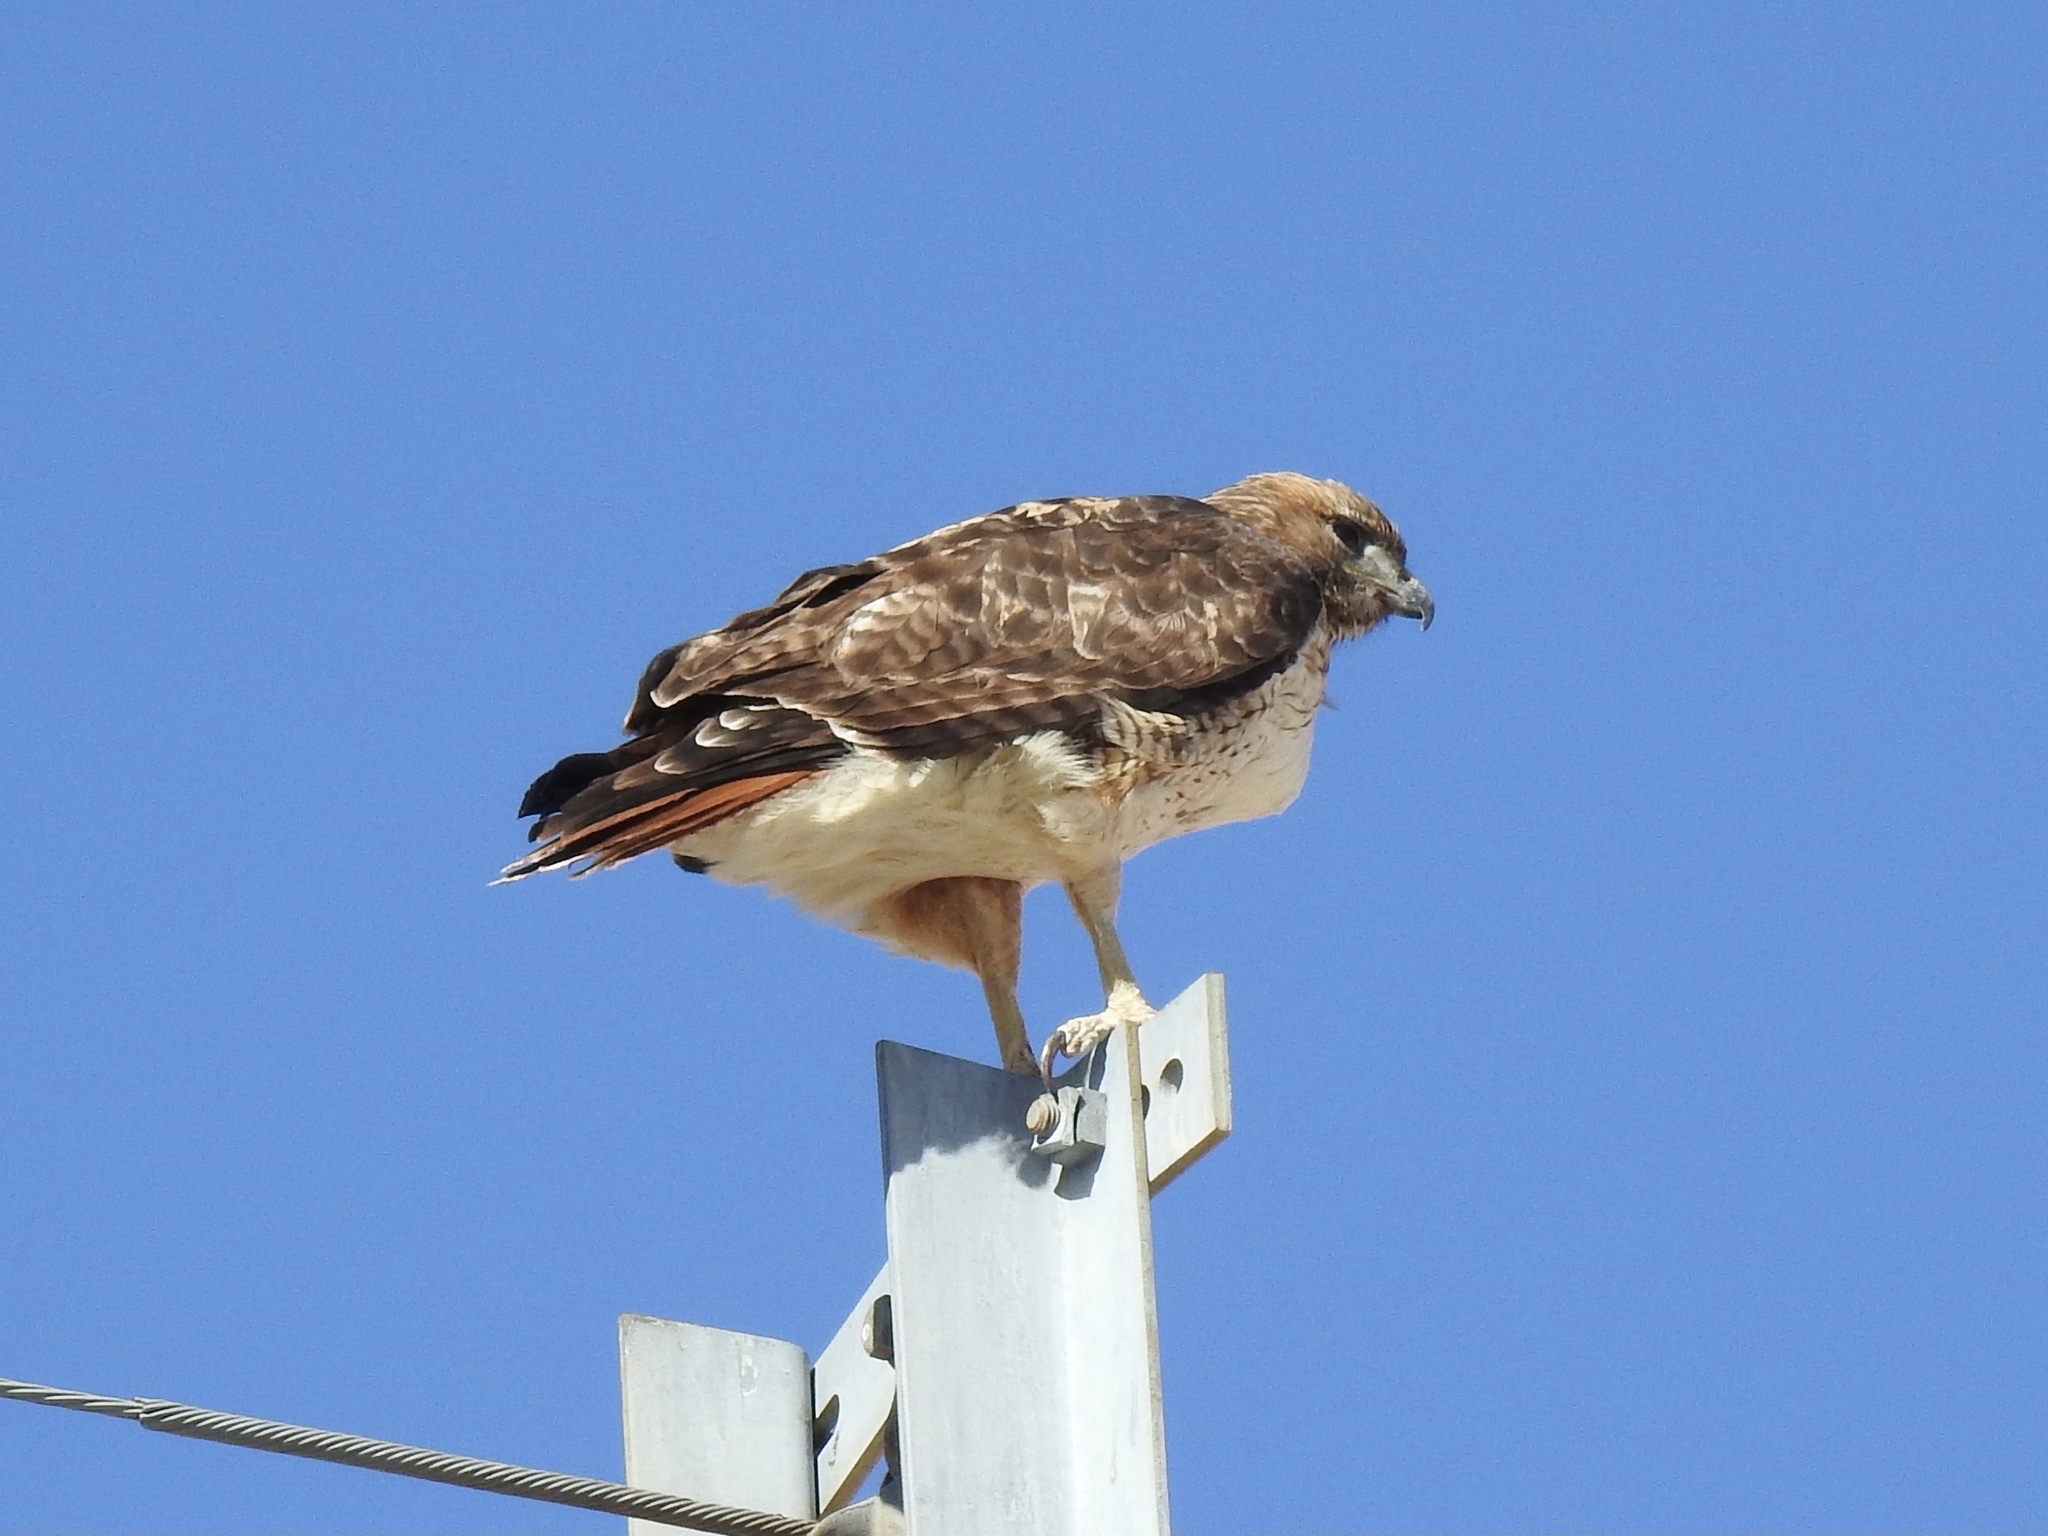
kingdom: Animalia
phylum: Chordata
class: Aves
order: Accipitriformes
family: Accipitridae
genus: Buteo
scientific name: Buteo jamaicensis
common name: Red-tailed hawk
